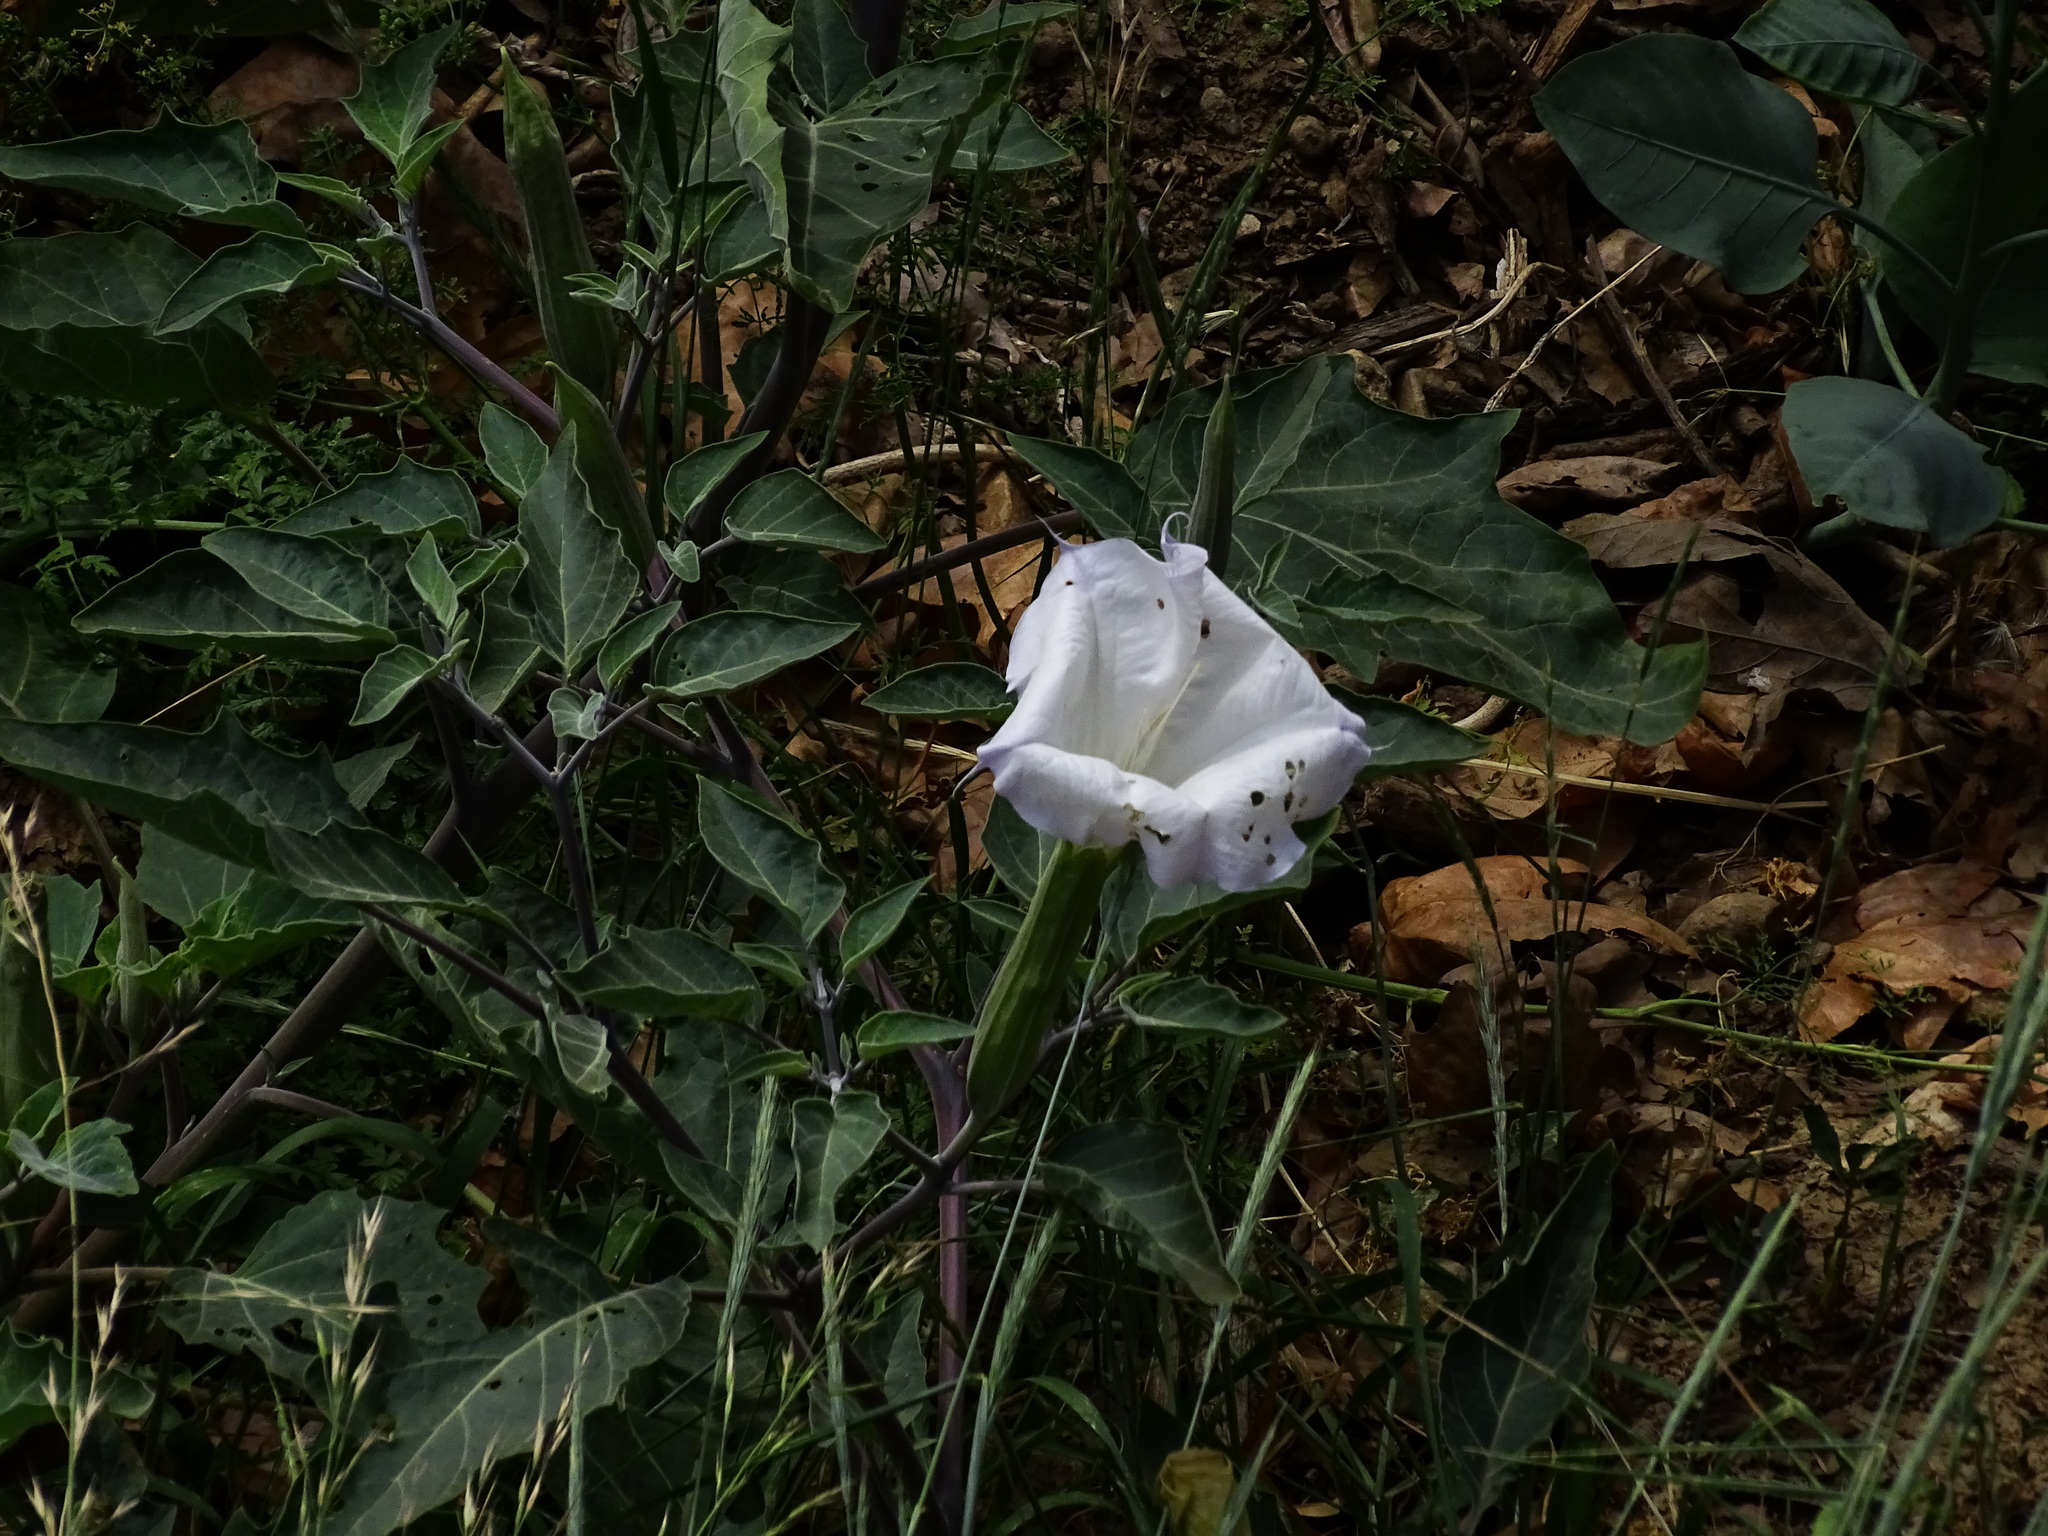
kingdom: Plantae
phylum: Tracheophyta
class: Magnoliopsida
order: Solanales
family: Solanaceae
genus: Datura
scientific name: Datura wrightii
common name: Sacred thorn-apple
